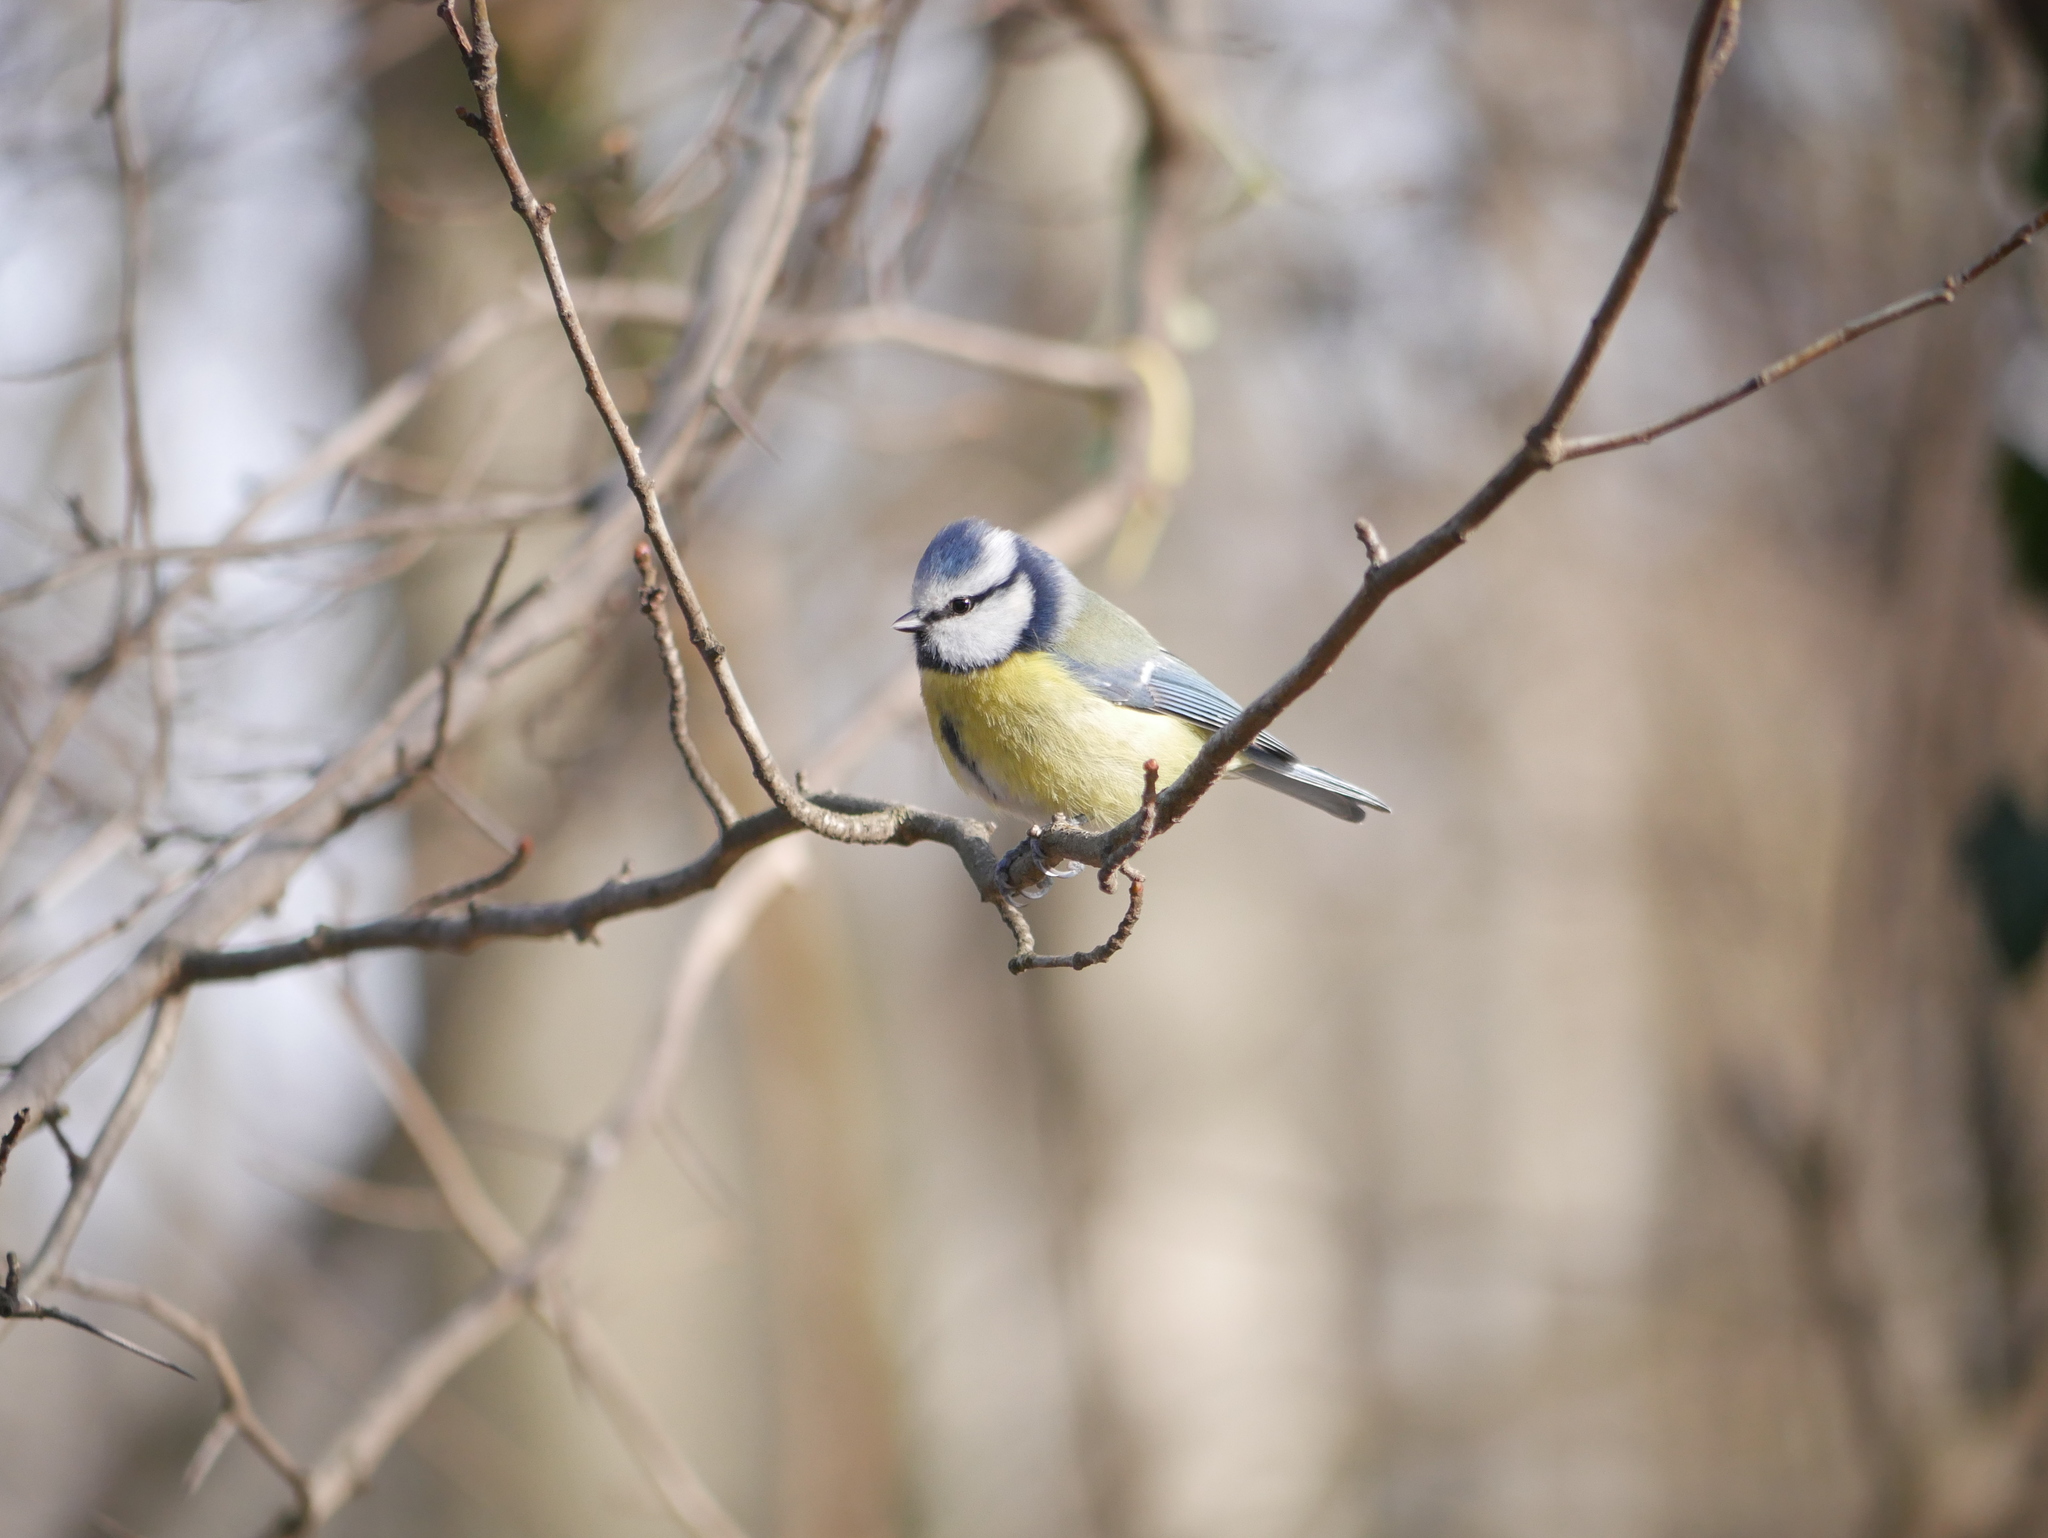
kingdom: Animalia
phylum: Chordata
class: Aves
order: Passeriformes
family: Paridae
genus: Cyanistes
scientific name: Cyanistes caeruleus
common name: Eurasian blue tit
